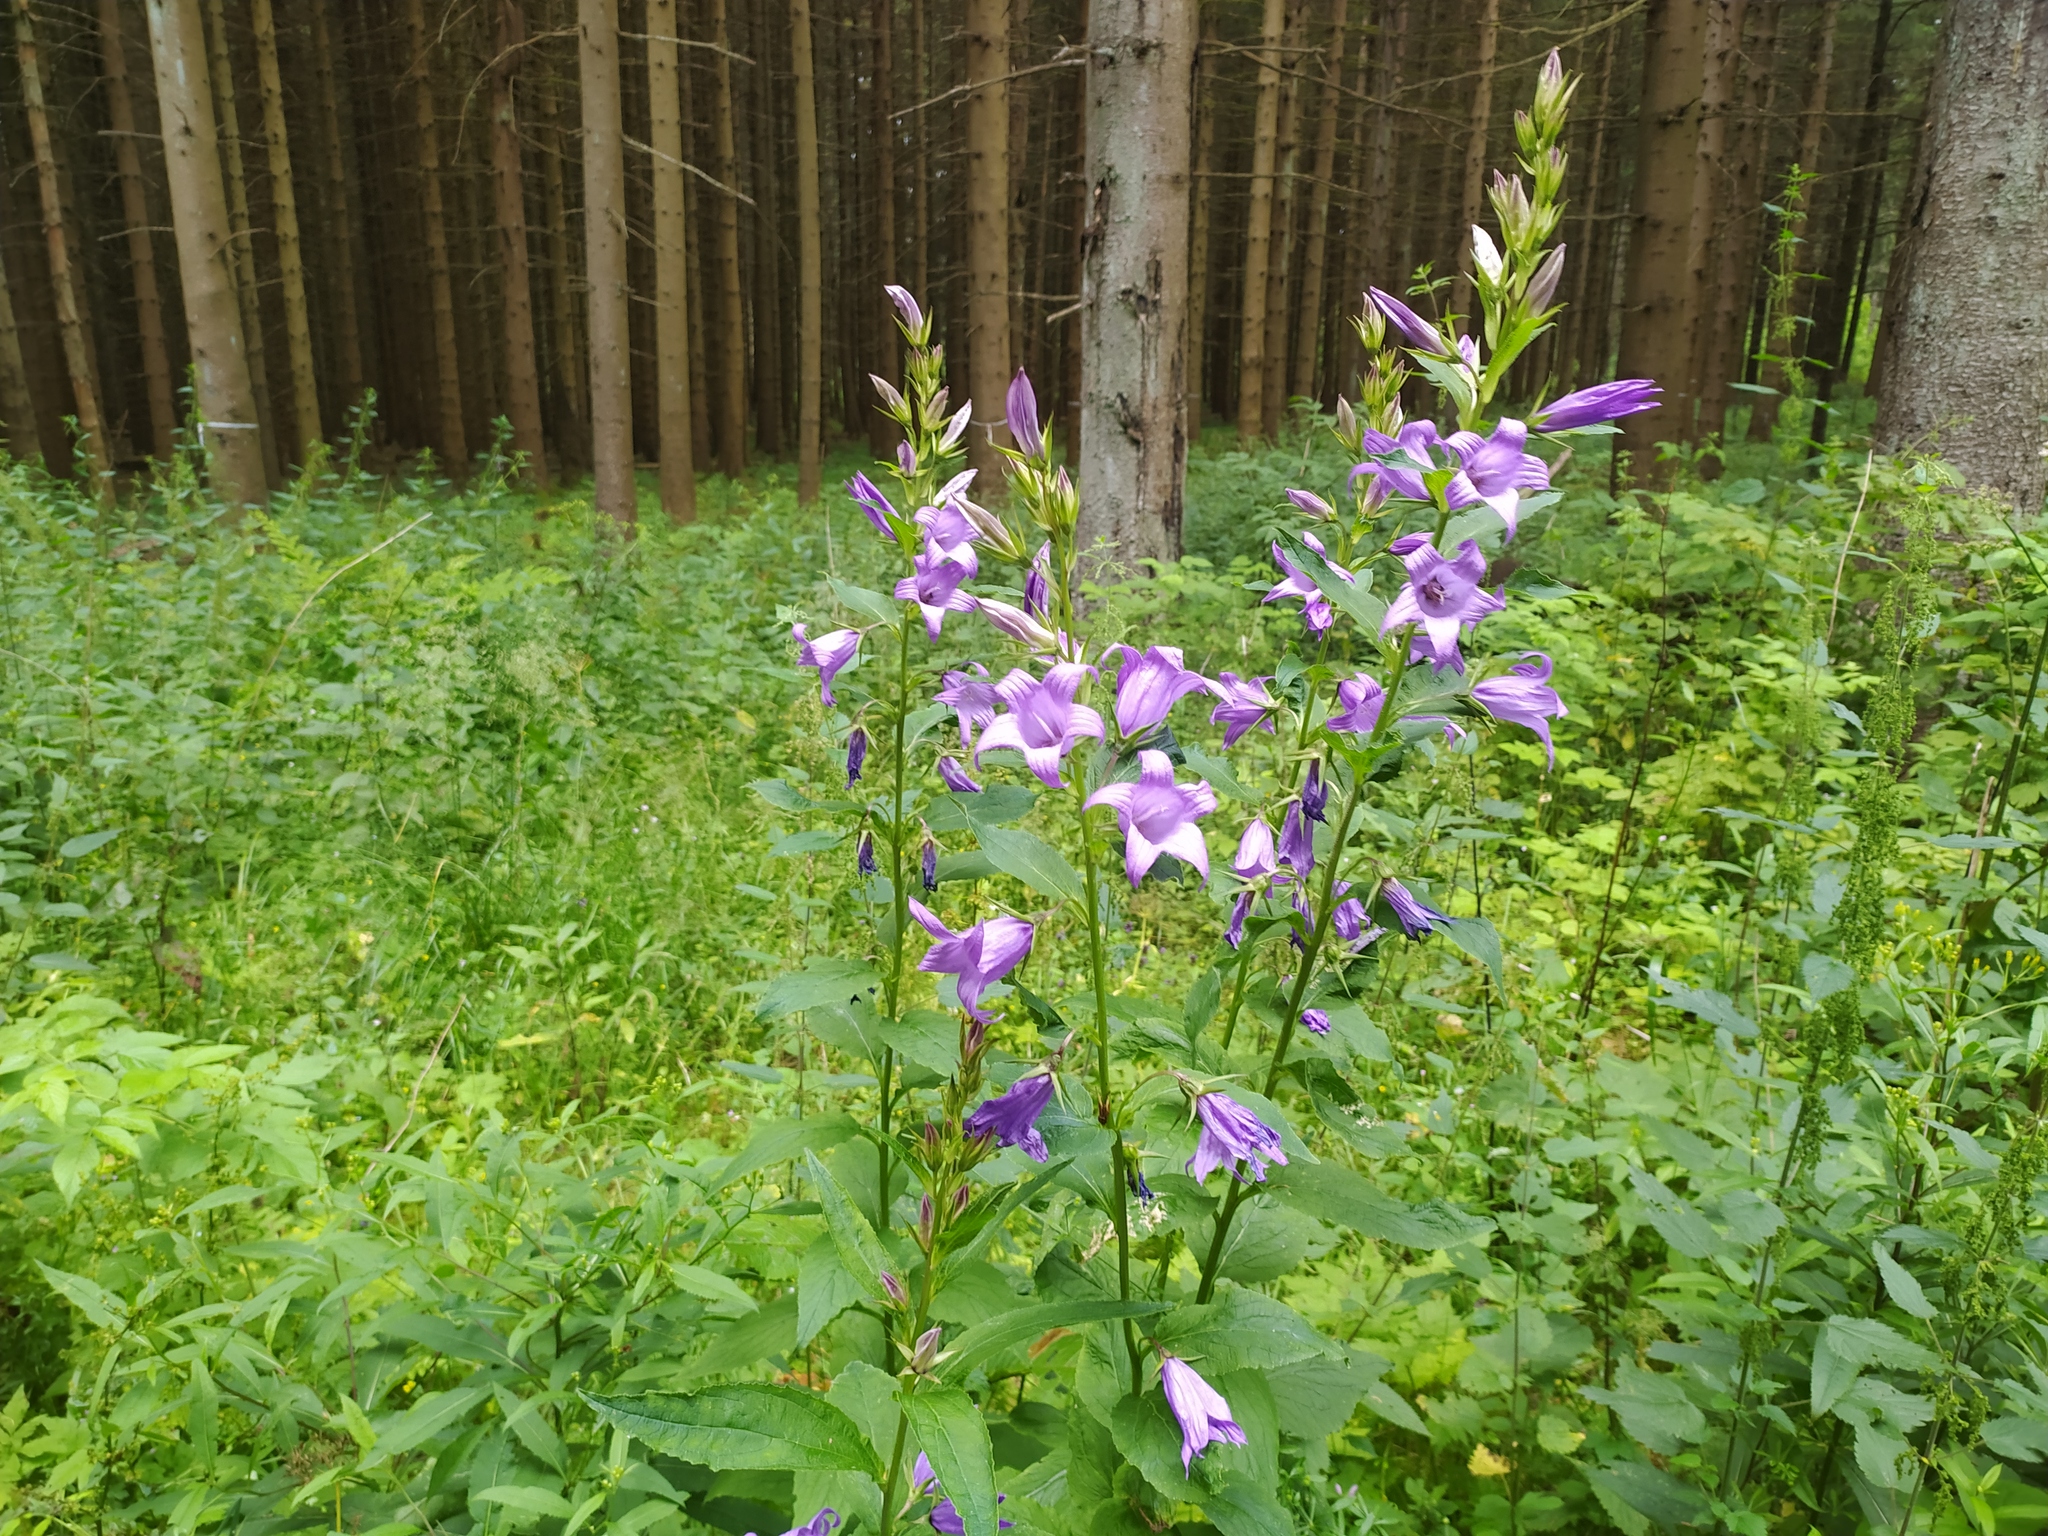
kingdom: Plantae
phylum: Tracheophyta
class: Magnoliopsida
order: Asterales
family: Campanulaceae
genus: Campanula
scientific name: Campanula latifolia
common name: Giant bellflower
